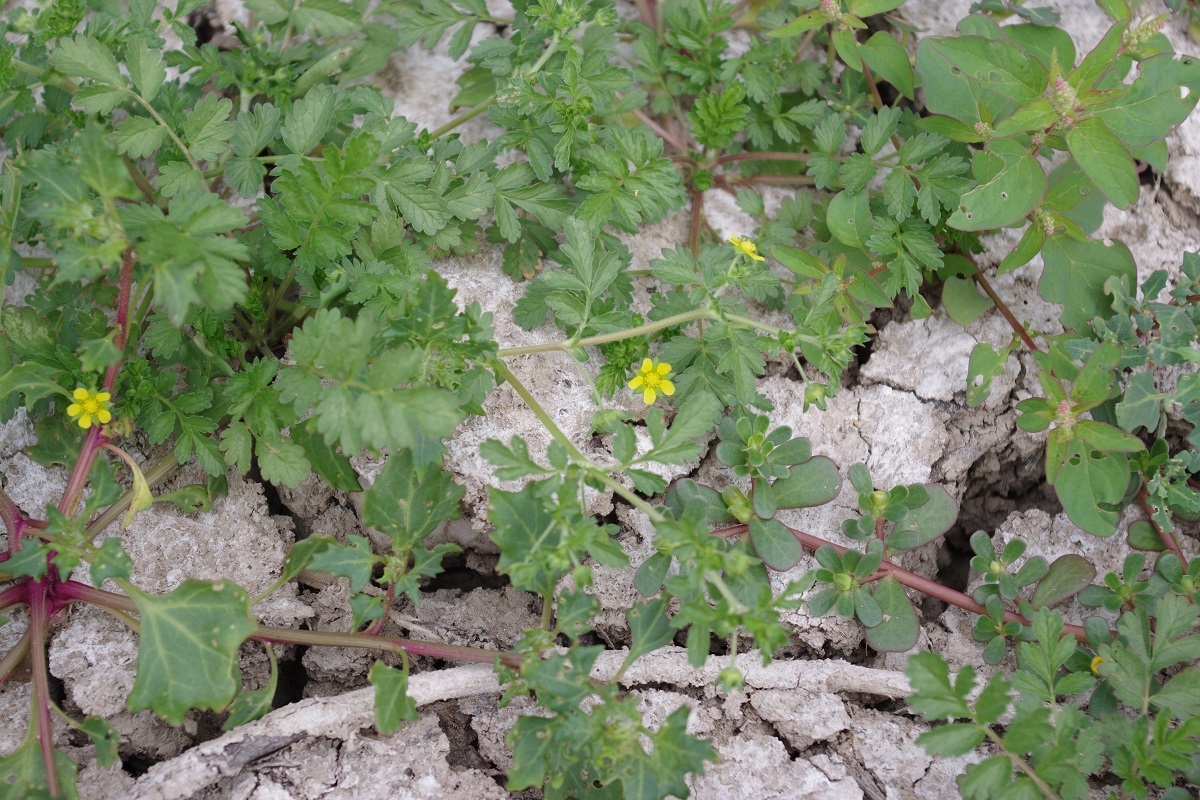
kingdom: Plantae
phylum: Tracheophyta
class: Magnoliopsida
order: Rosales
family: Rosaceae
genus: Potentilla
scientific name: Potentilla supina
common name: Prostrate cinquefoil
